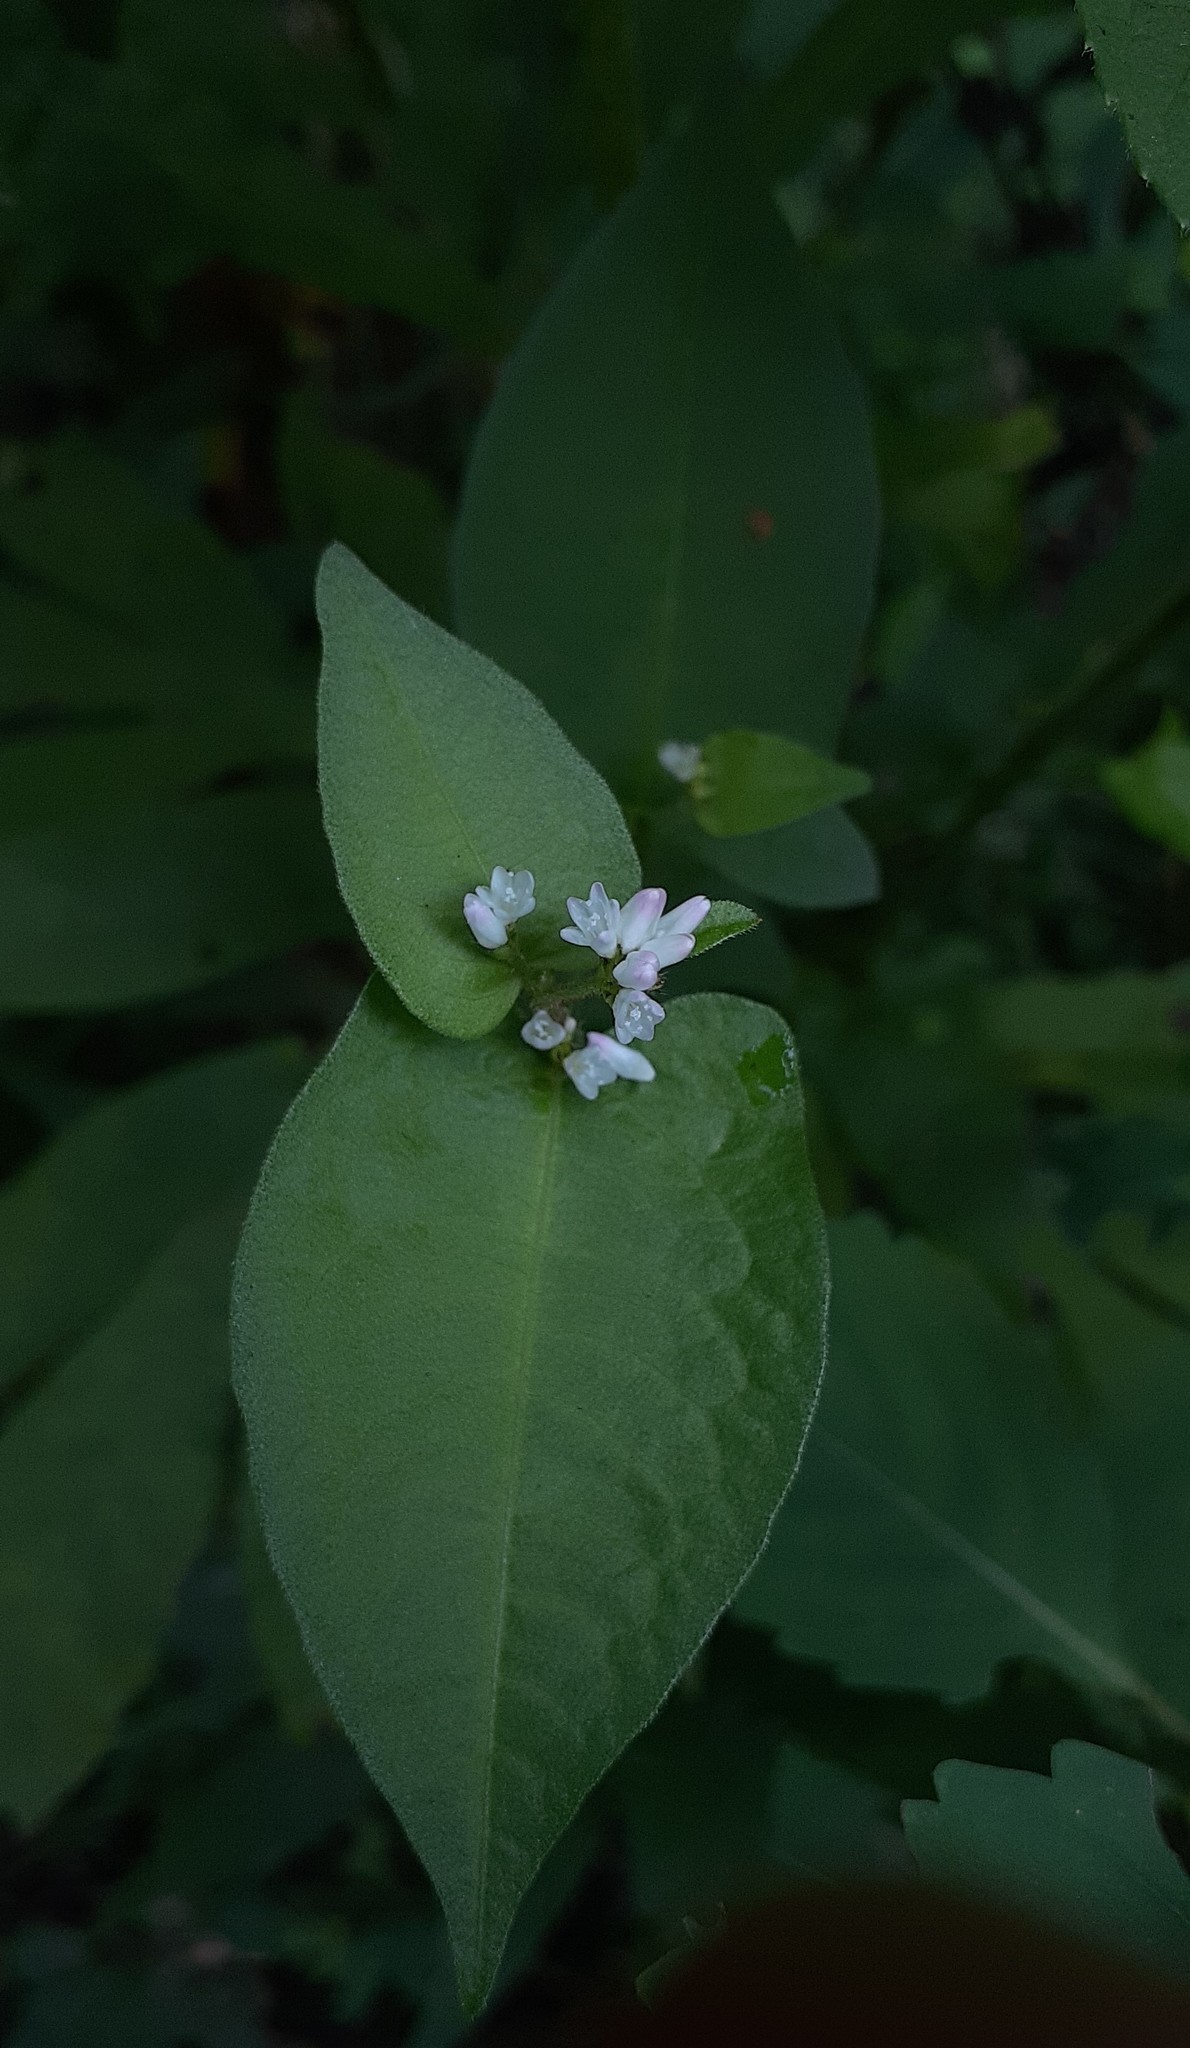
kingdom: Plantae
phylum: Tracheophyta
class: Magnoliopsida
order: Caryophyllales
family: Polygonaceae
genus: Persicaria
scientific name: Persicaria thunbergii
